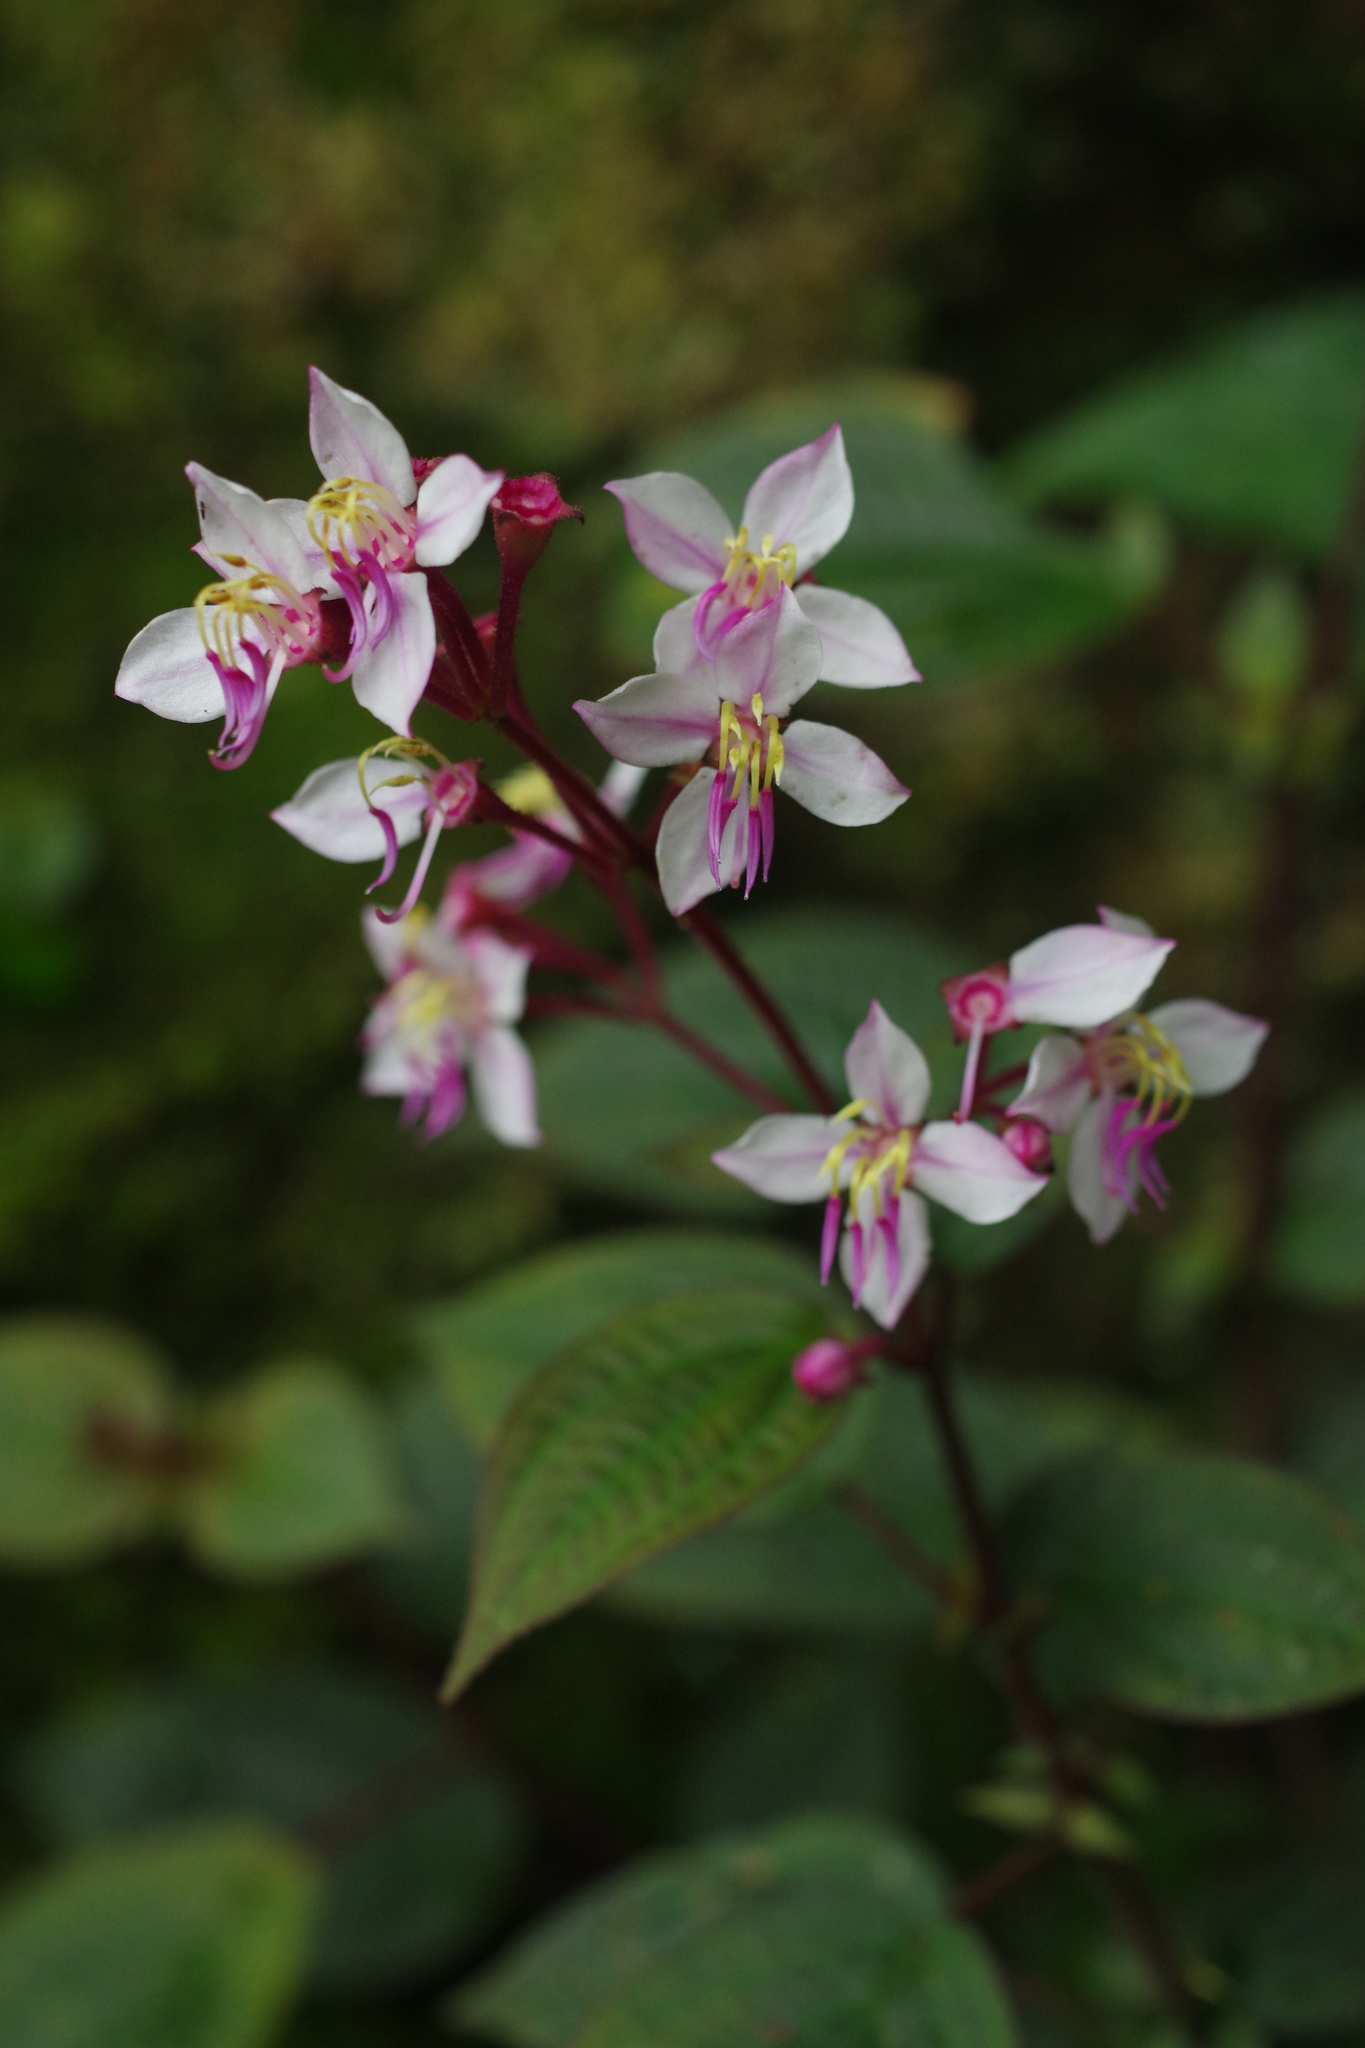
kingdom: Plantae
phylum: Tracheophyta
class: Magnoliopsida
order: Myrtales
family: Melastomataceae
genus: Bredia
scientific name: Bredia hirsuta
